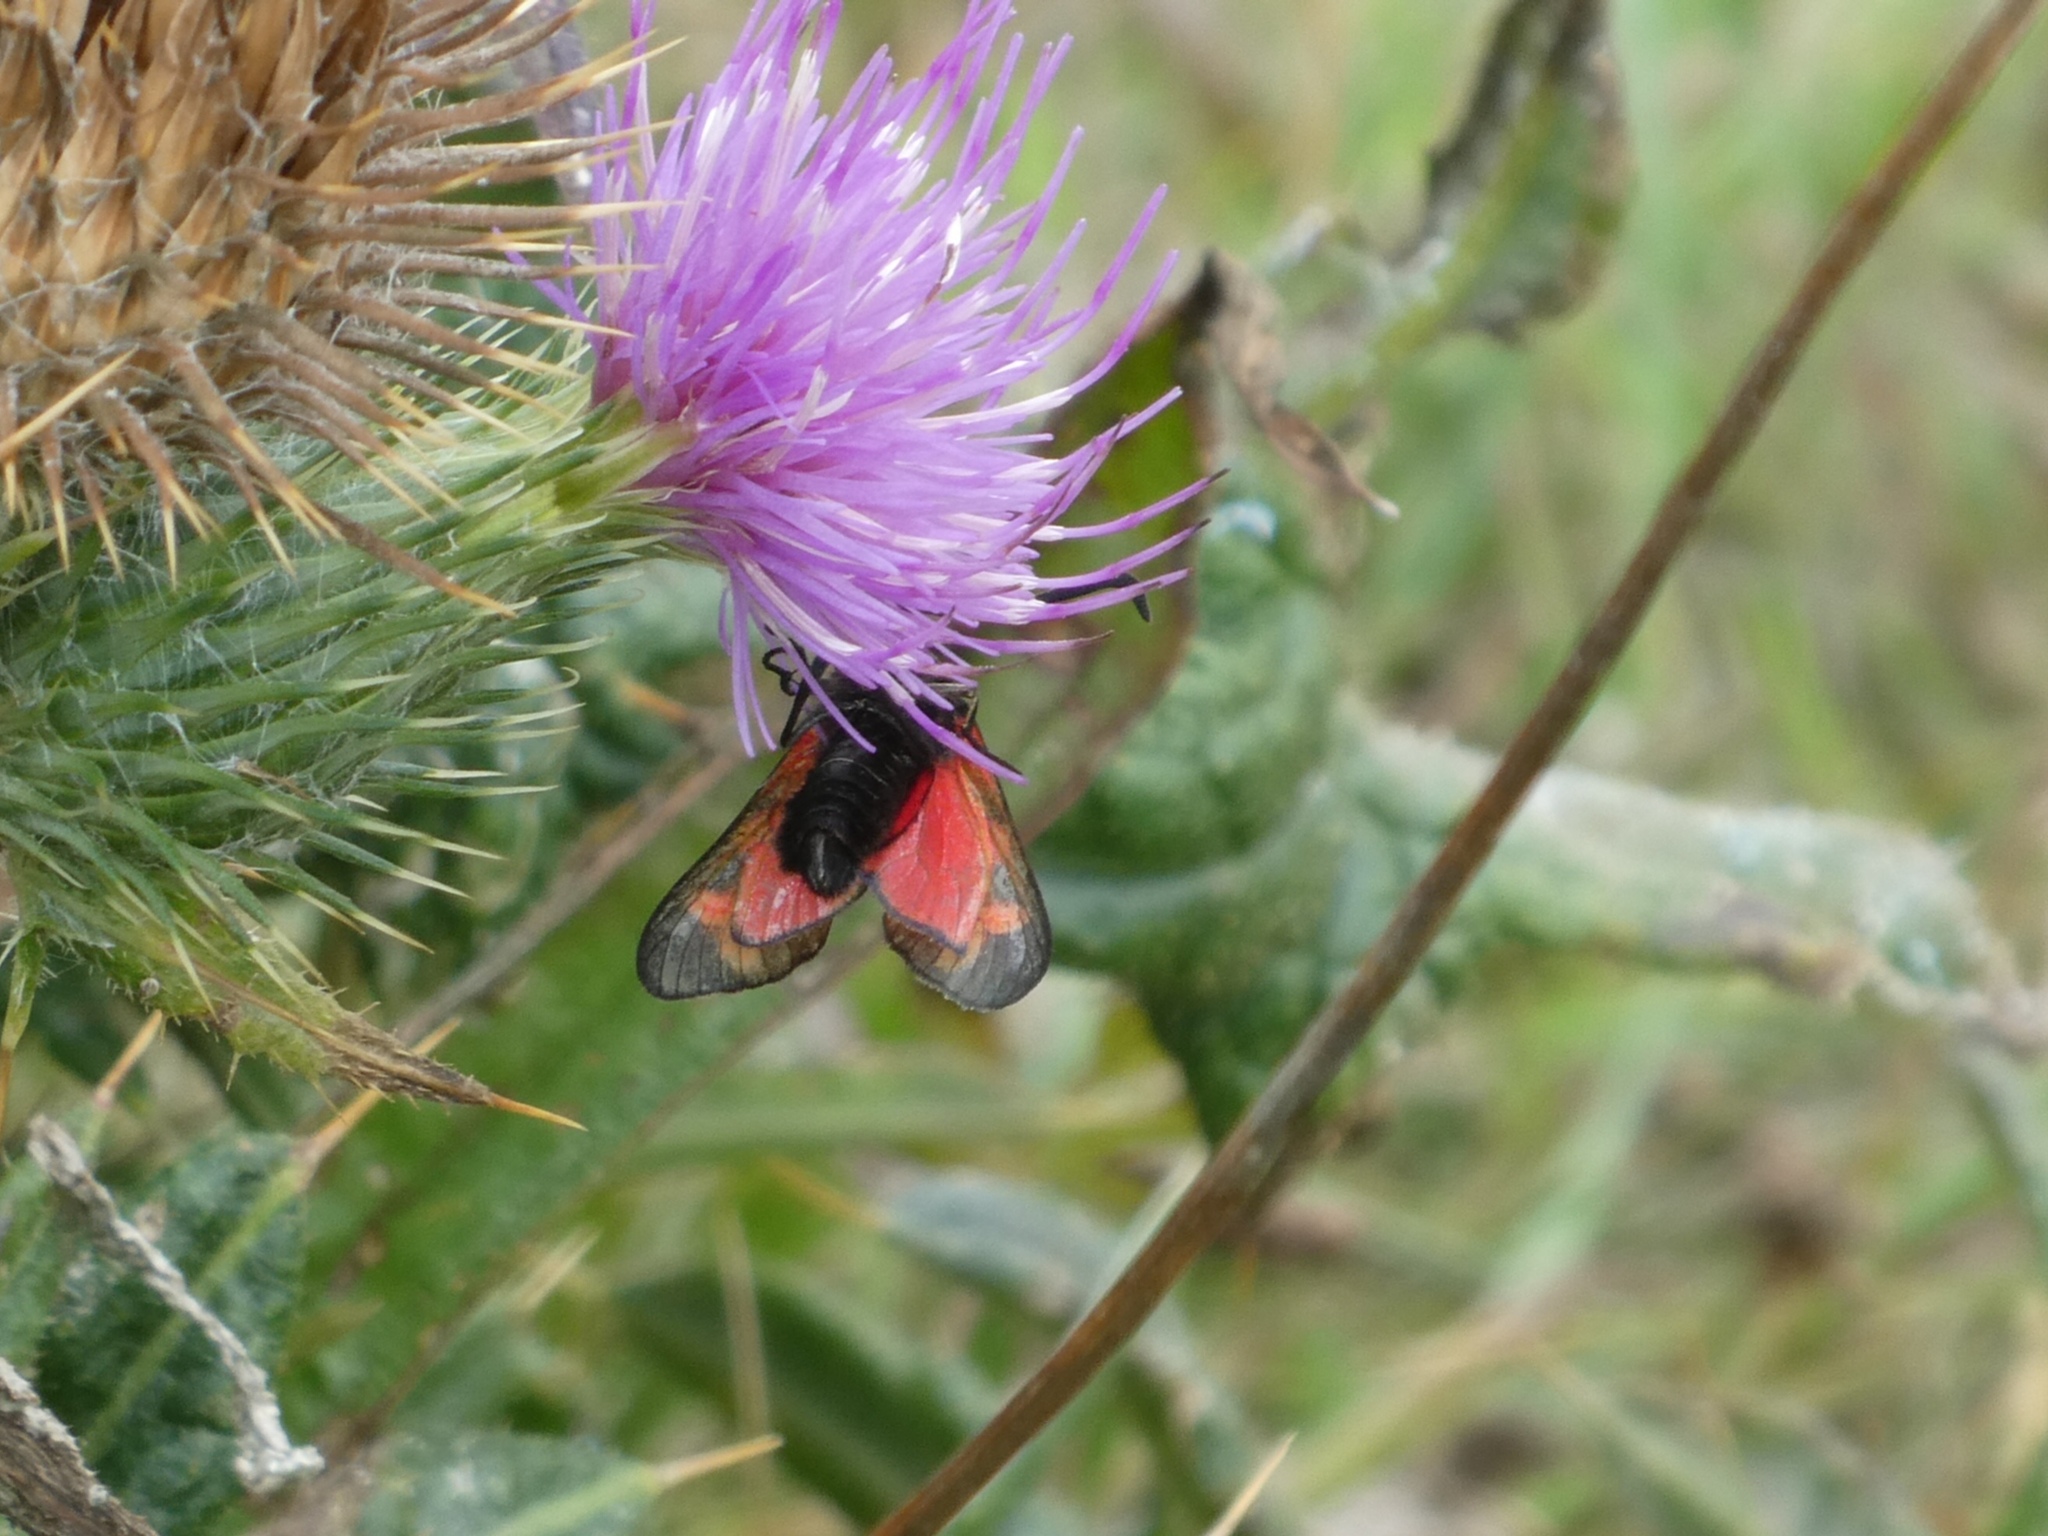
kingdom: Animalia
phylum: Arthropoda
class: Insecta
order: Lepidoptera
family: Zygaenidae
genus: Zygaena
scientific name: Zygaena filipendulae
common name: Six-spot burnet
